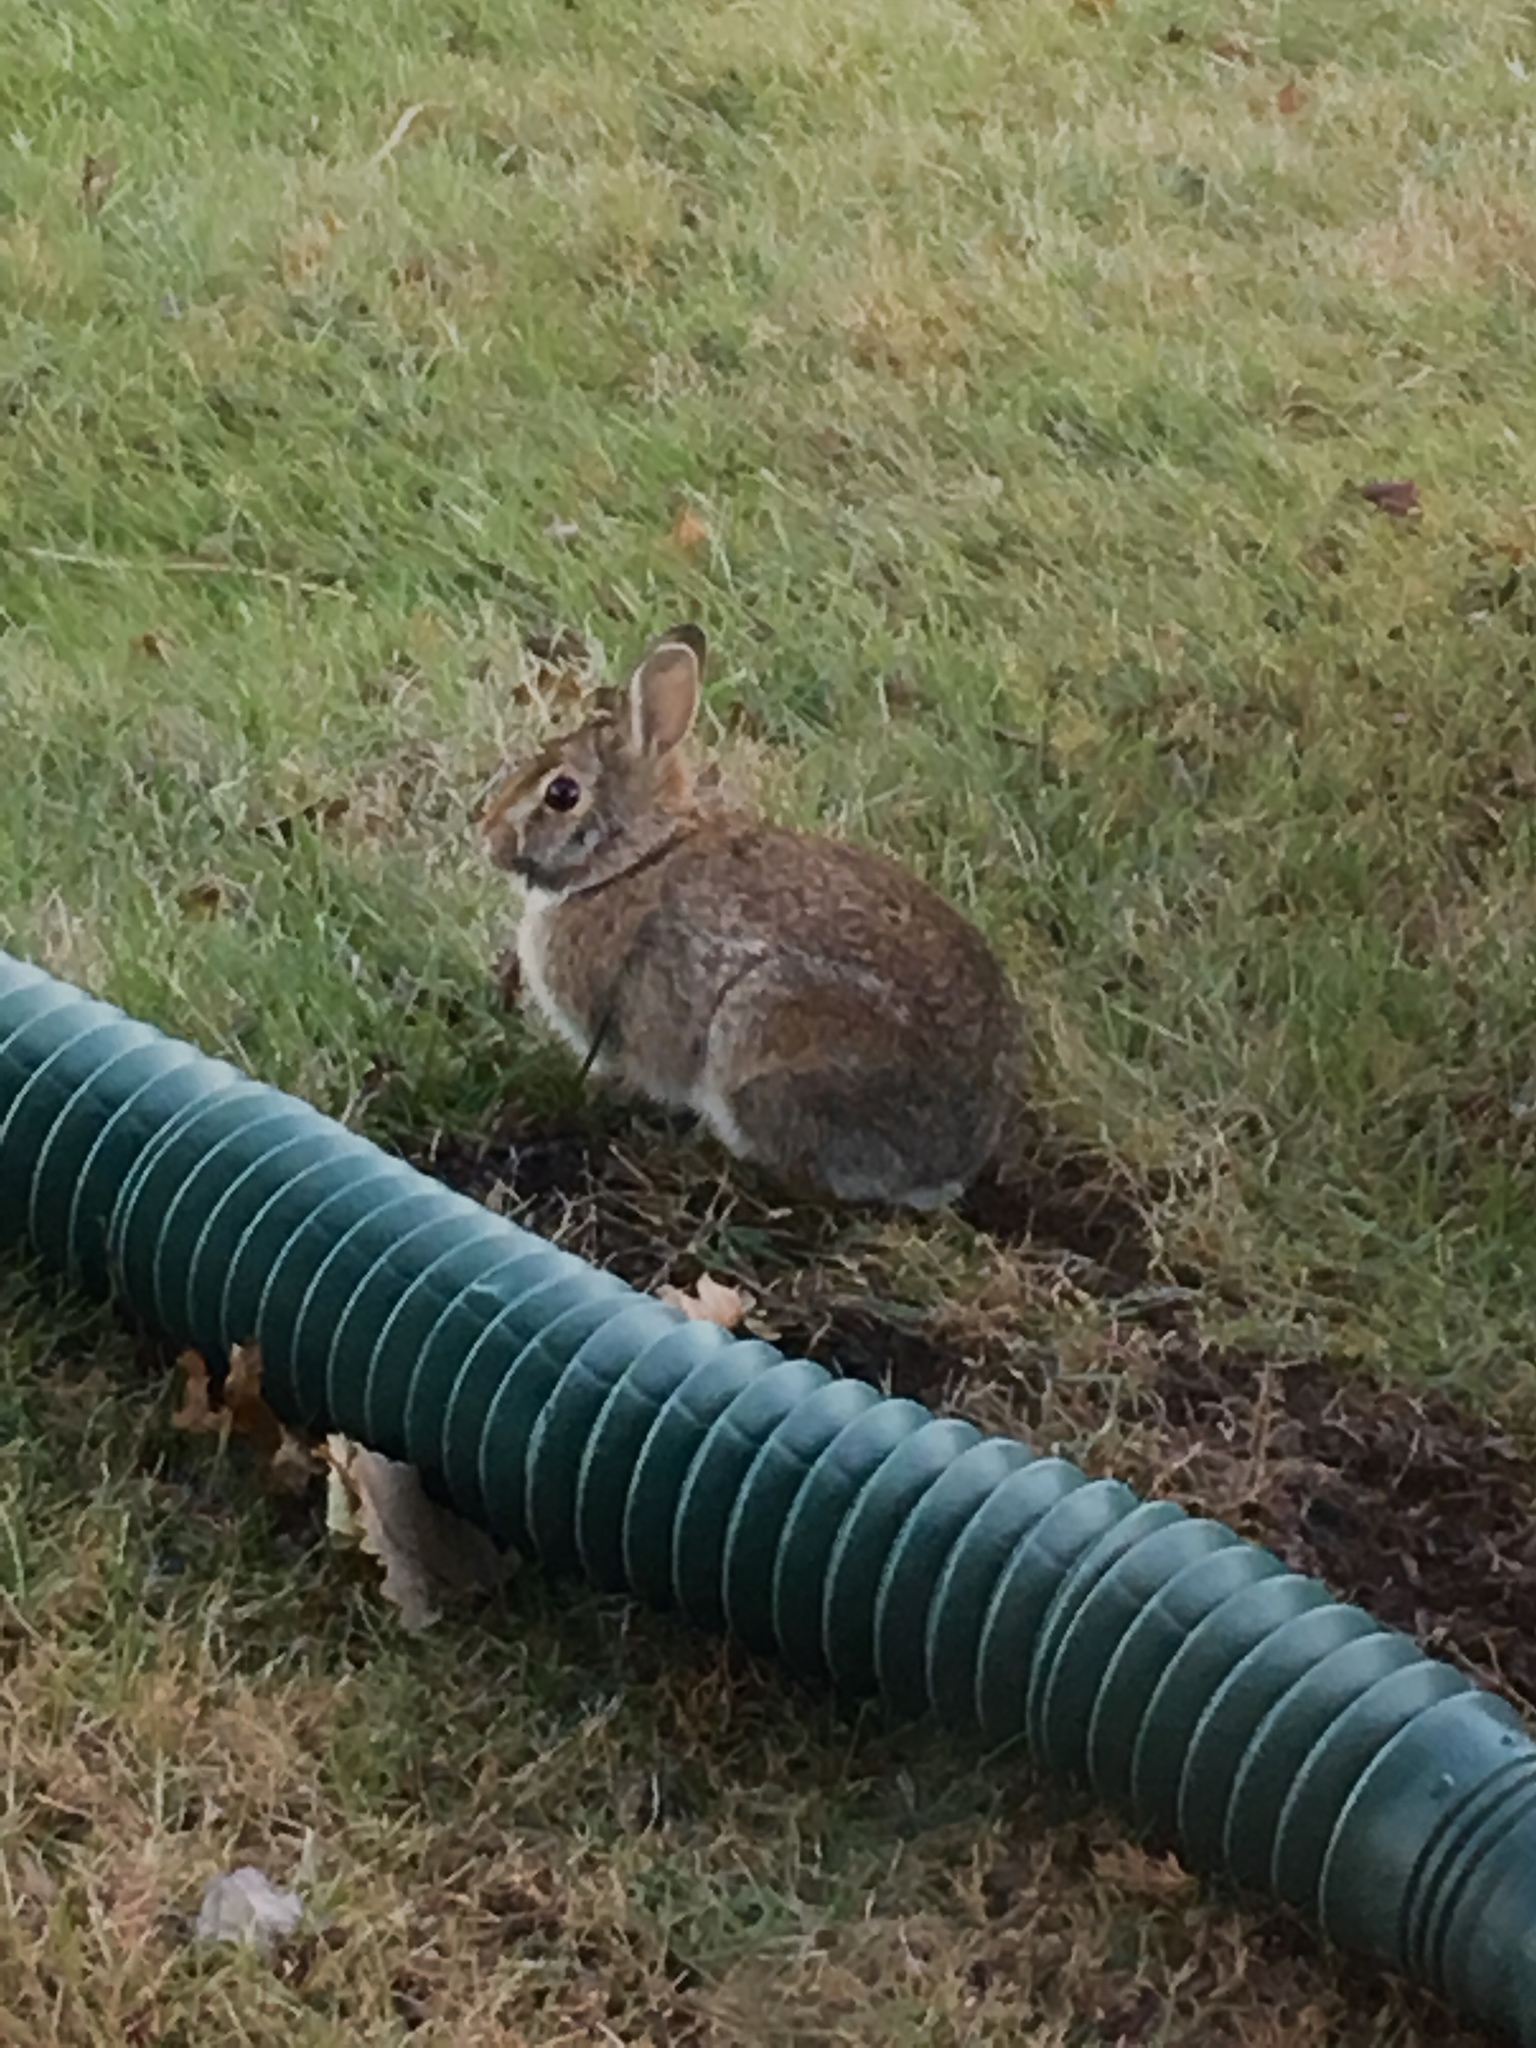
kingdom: Animalia
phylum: Chordata
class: Mammalia
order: Lagomorpha
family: Leporidae
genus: Sylvilagus
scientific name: Sylvilagus floridanus
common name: Eastern cottontail
